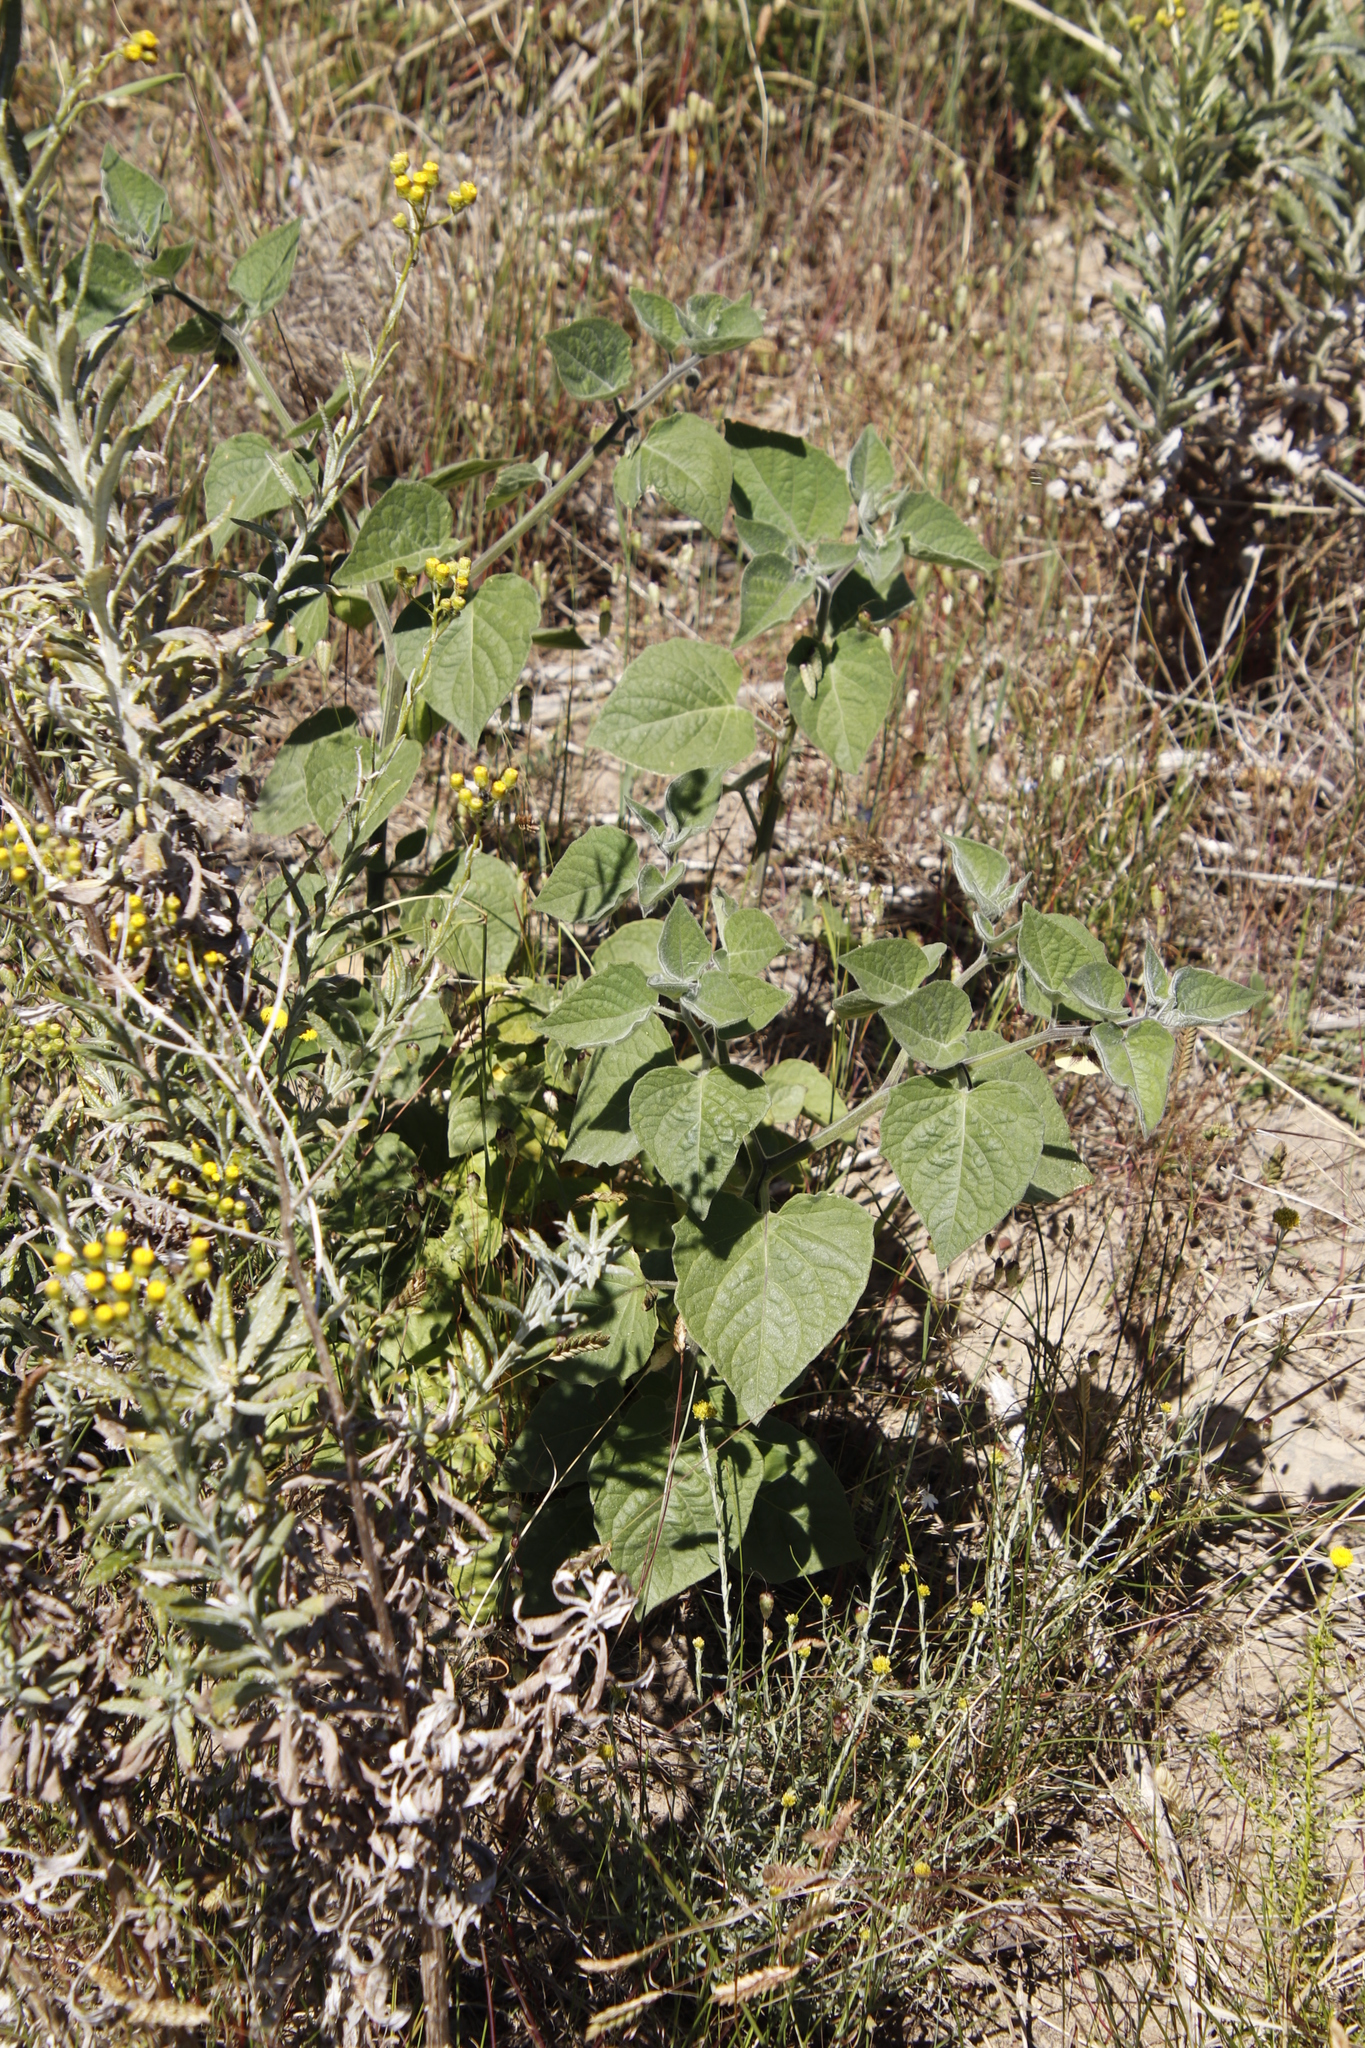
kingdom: Plantae
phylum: Tracheophyta
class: Magnoliopsida
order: Solanales
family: Solanaceae
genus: Physalis
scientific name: Physalis peruviana
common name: Cape-gooseberry
